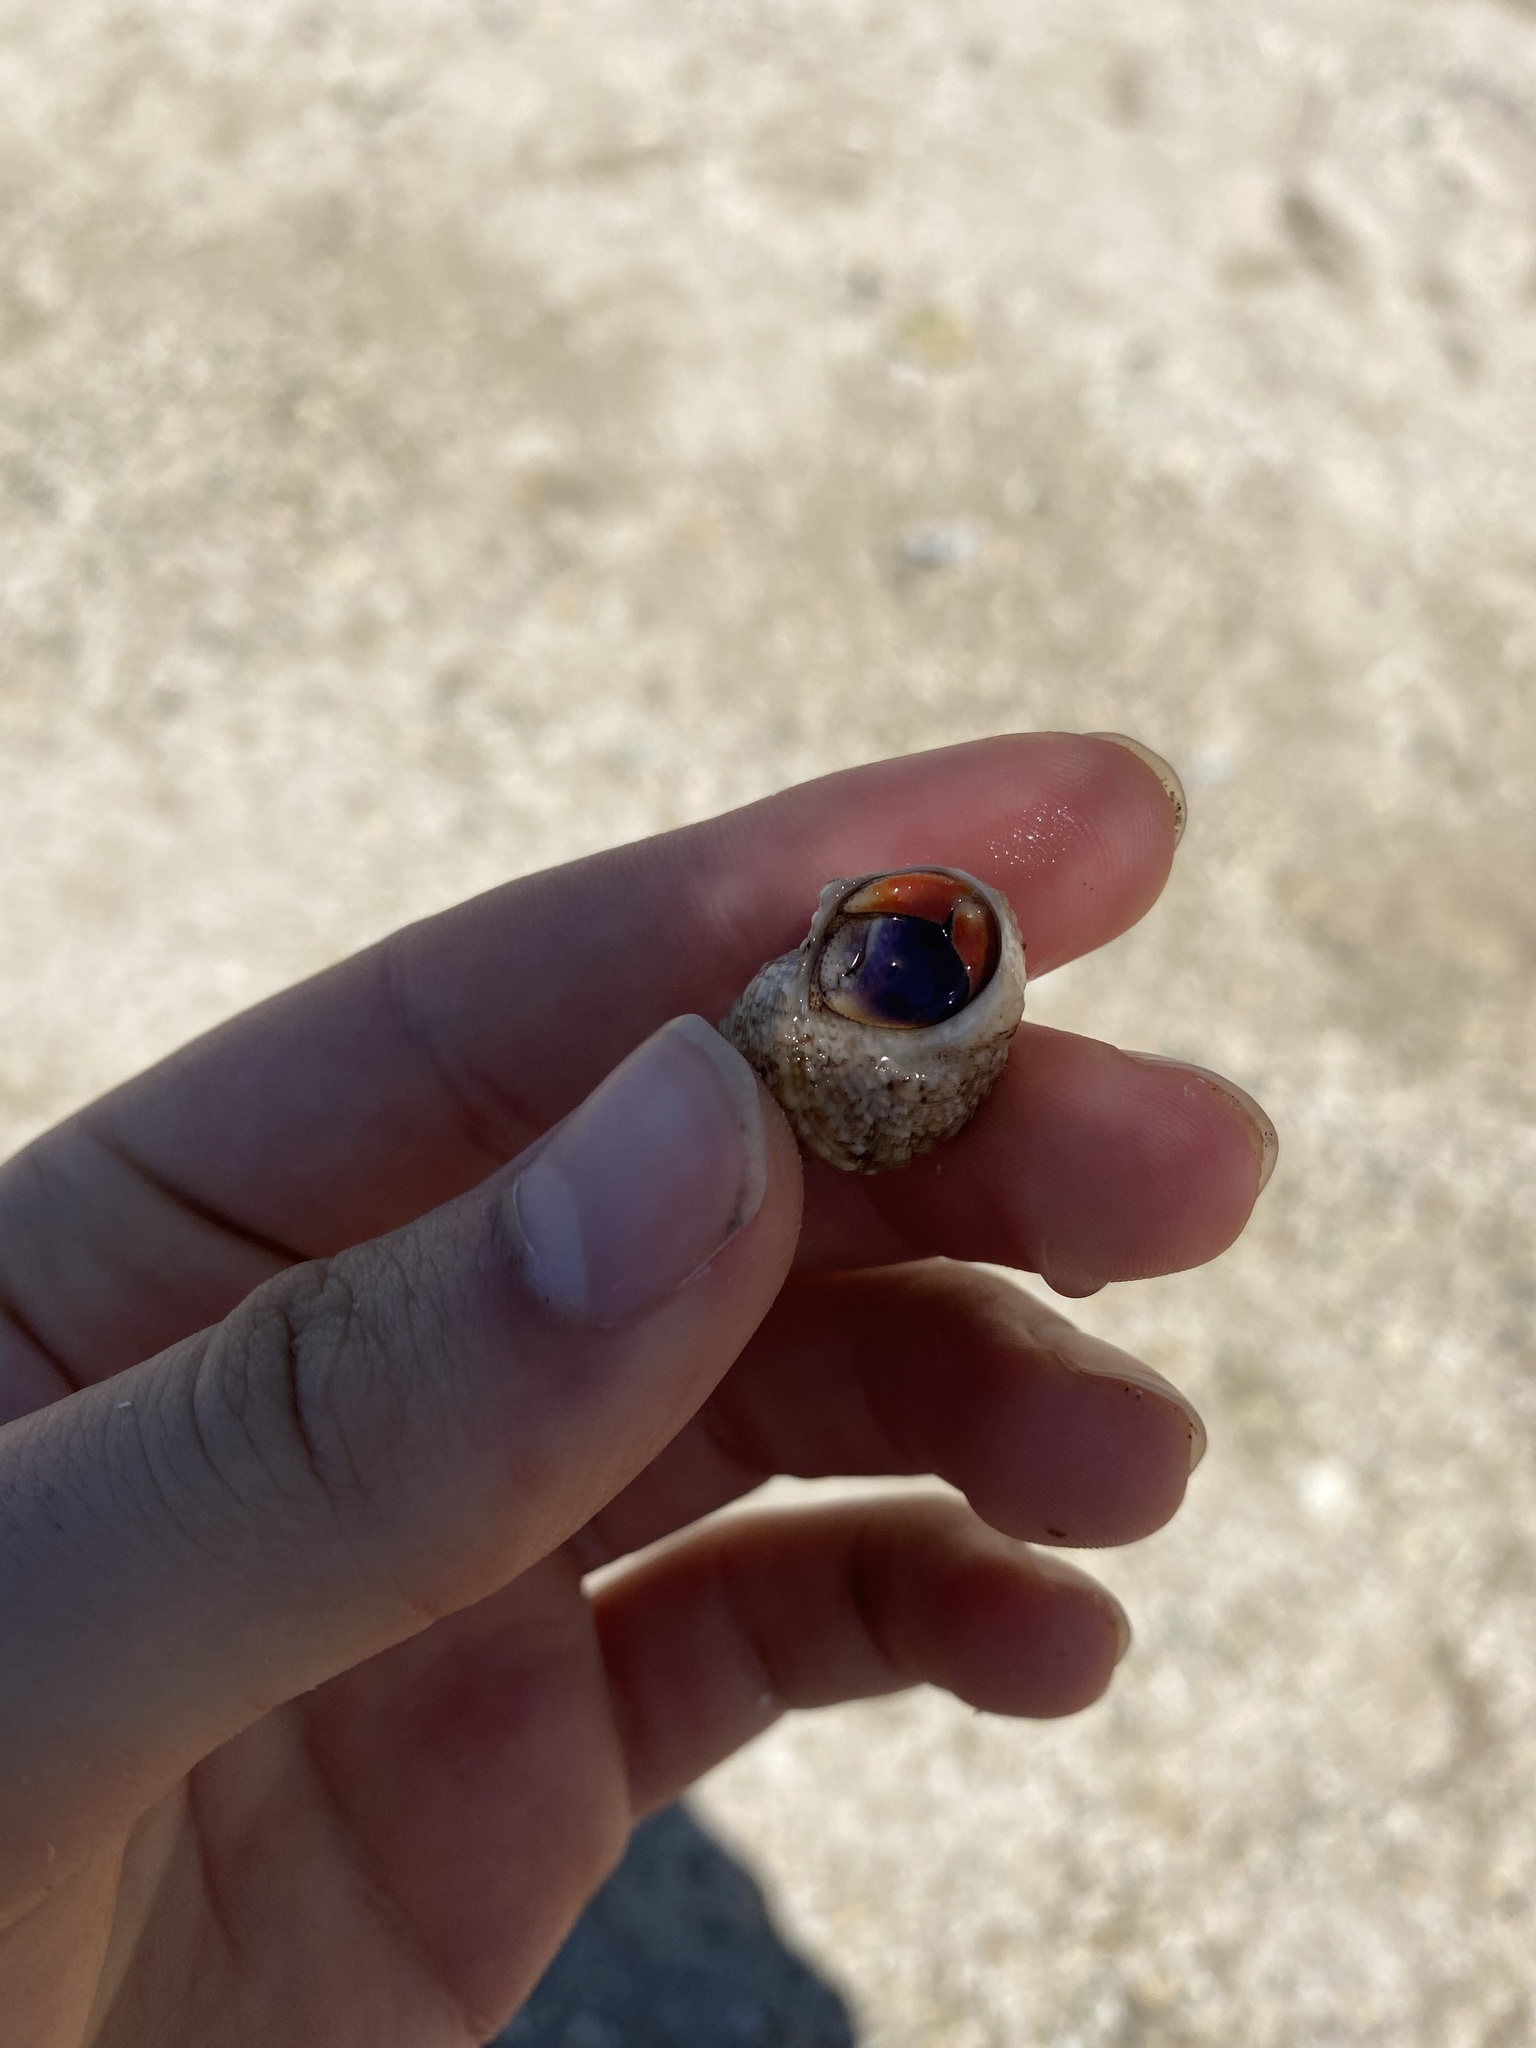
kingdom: Animalia
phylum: Arthropoda
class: Malacostraca
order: Decapoda
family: Coenobitidae
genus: Coenobita
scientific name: Coenobita clypeatus
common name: Caribbean hermit crab
